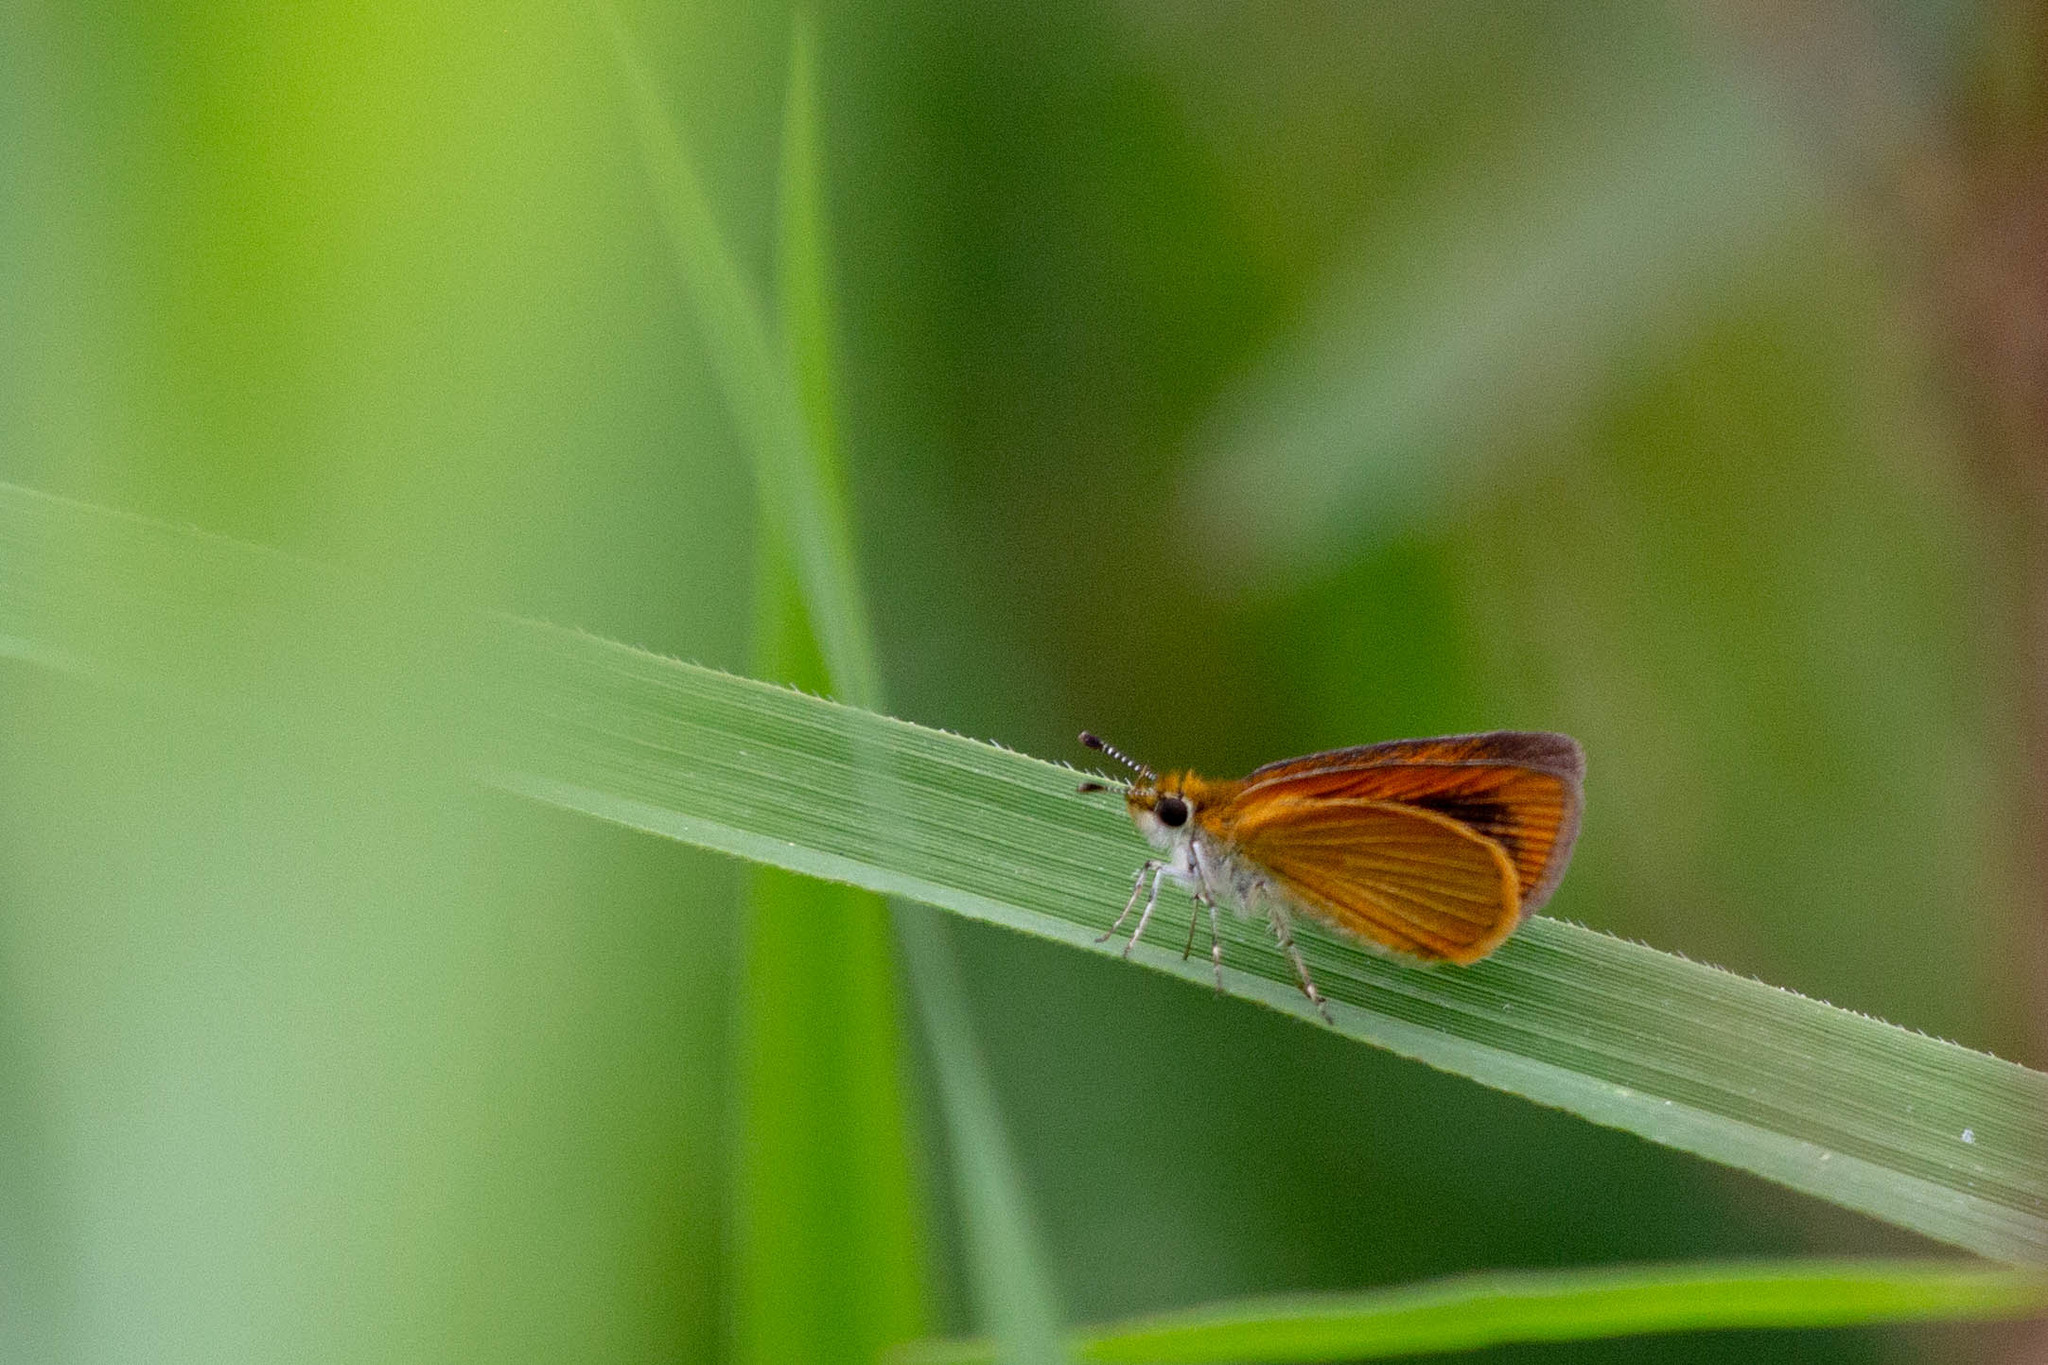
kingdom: Animalia
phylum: Arthropoda
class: Insecta
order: Lepidoptera
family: Hesperiidae
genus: Ancyloxypha
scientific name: Ancyloxypha numitor
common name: Least skipper
